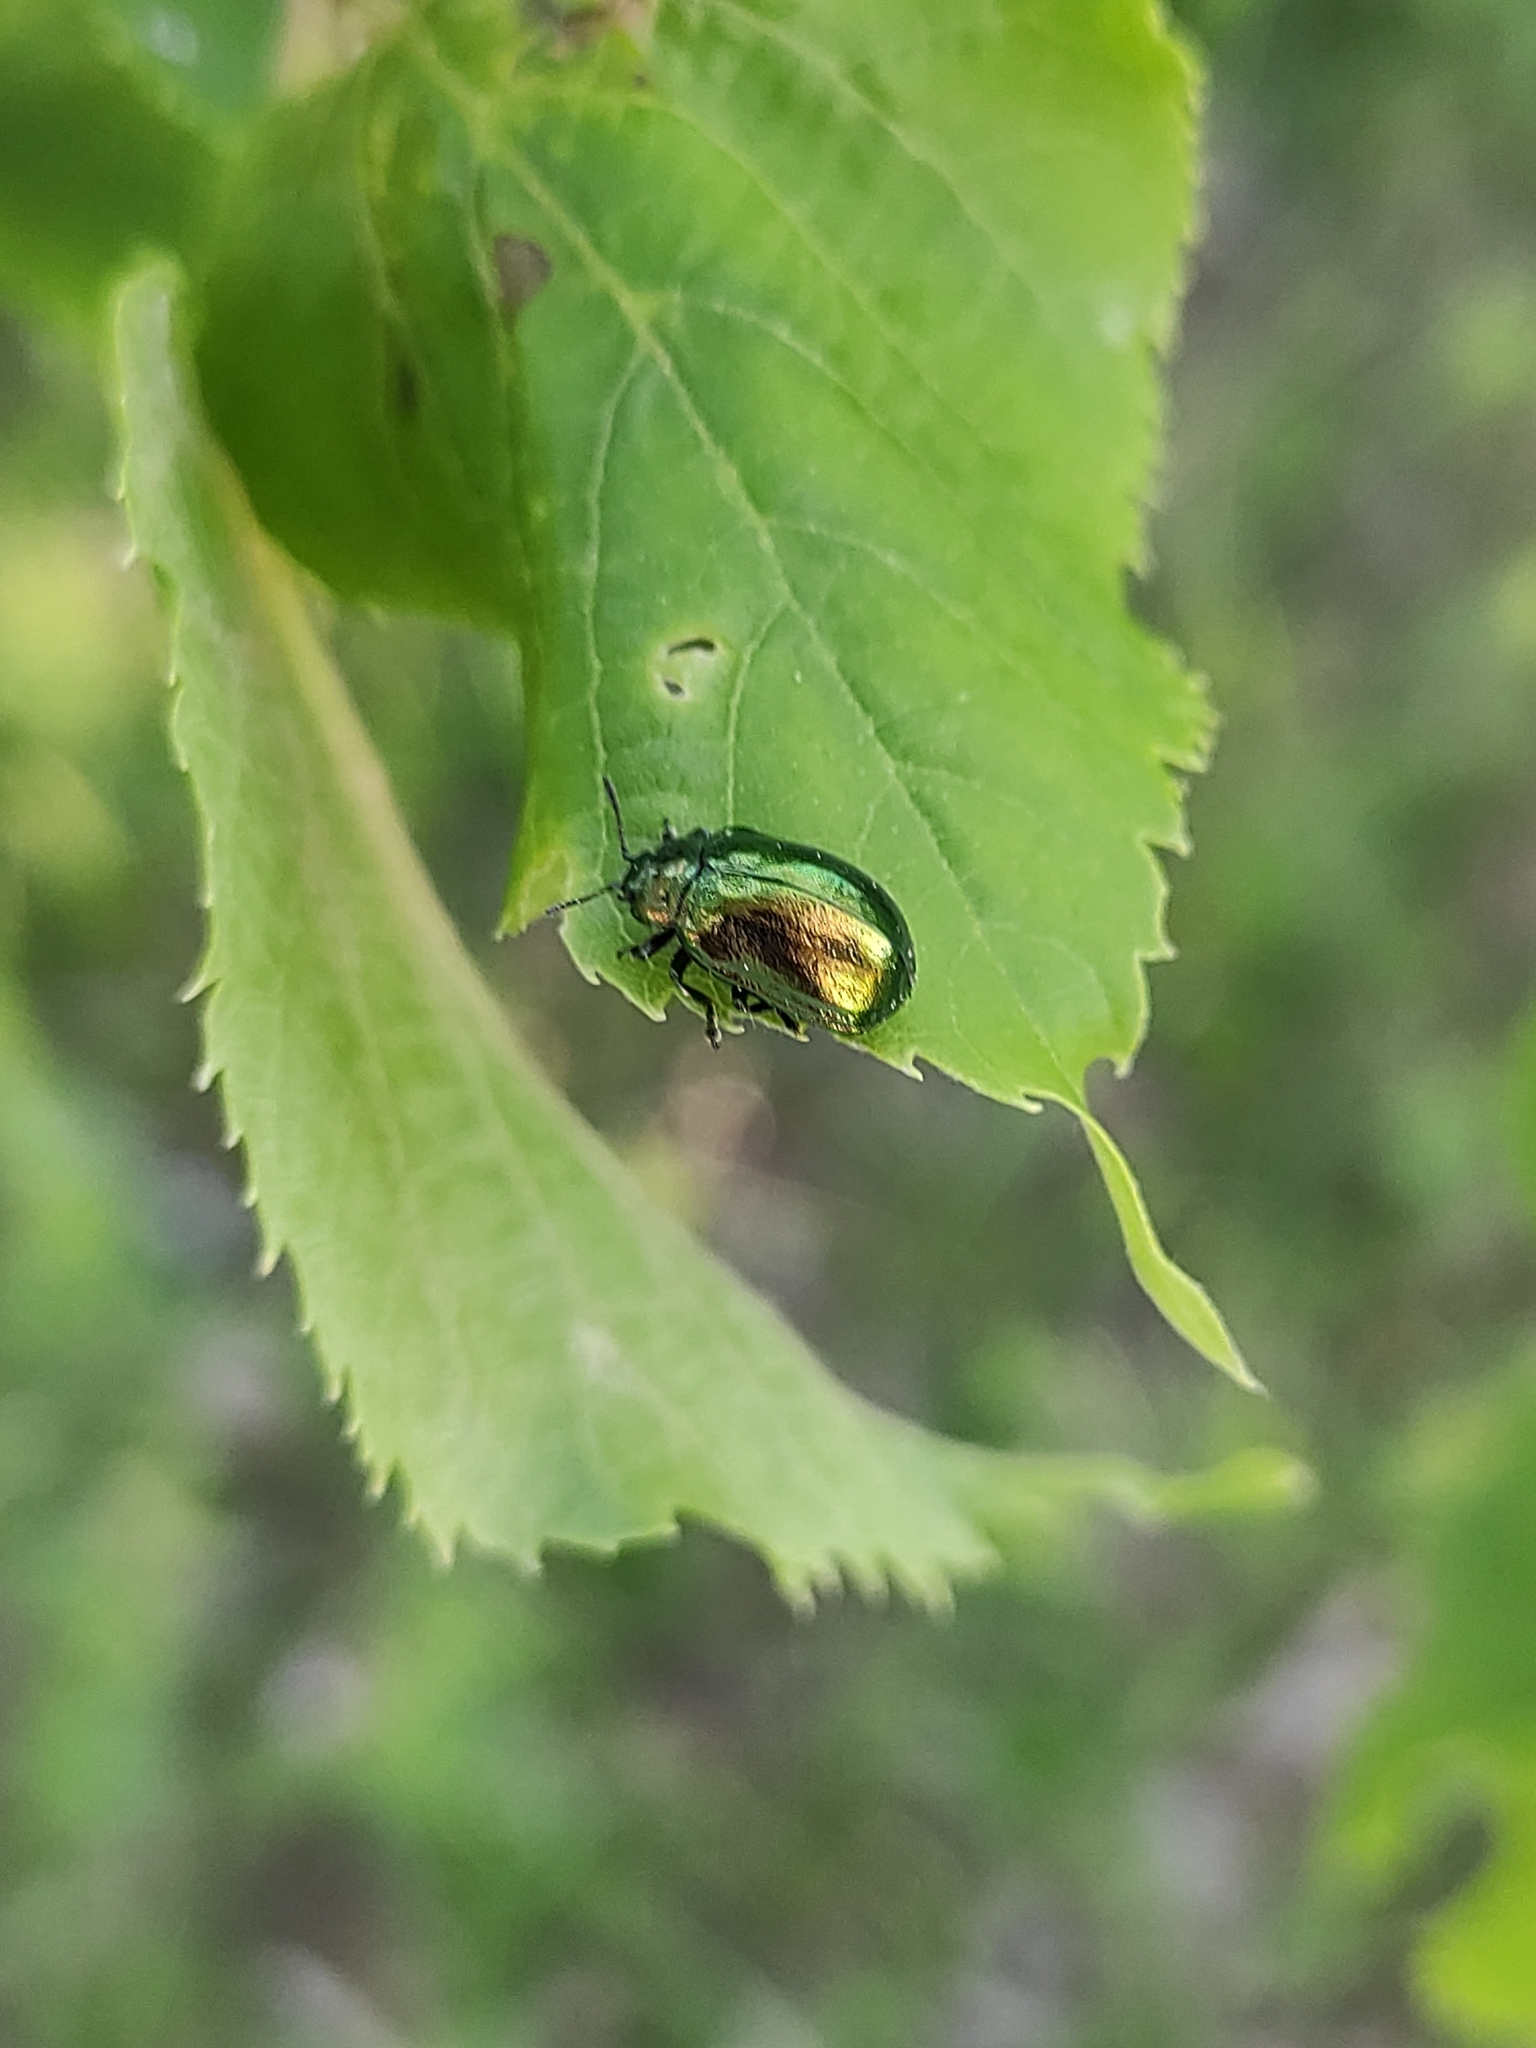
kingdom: Animalia
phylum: Arthropoda
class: Insecta
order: Coleoptera
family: Chrysomelidae
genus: Plagiosterna
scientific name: Plagiosterna aenea
